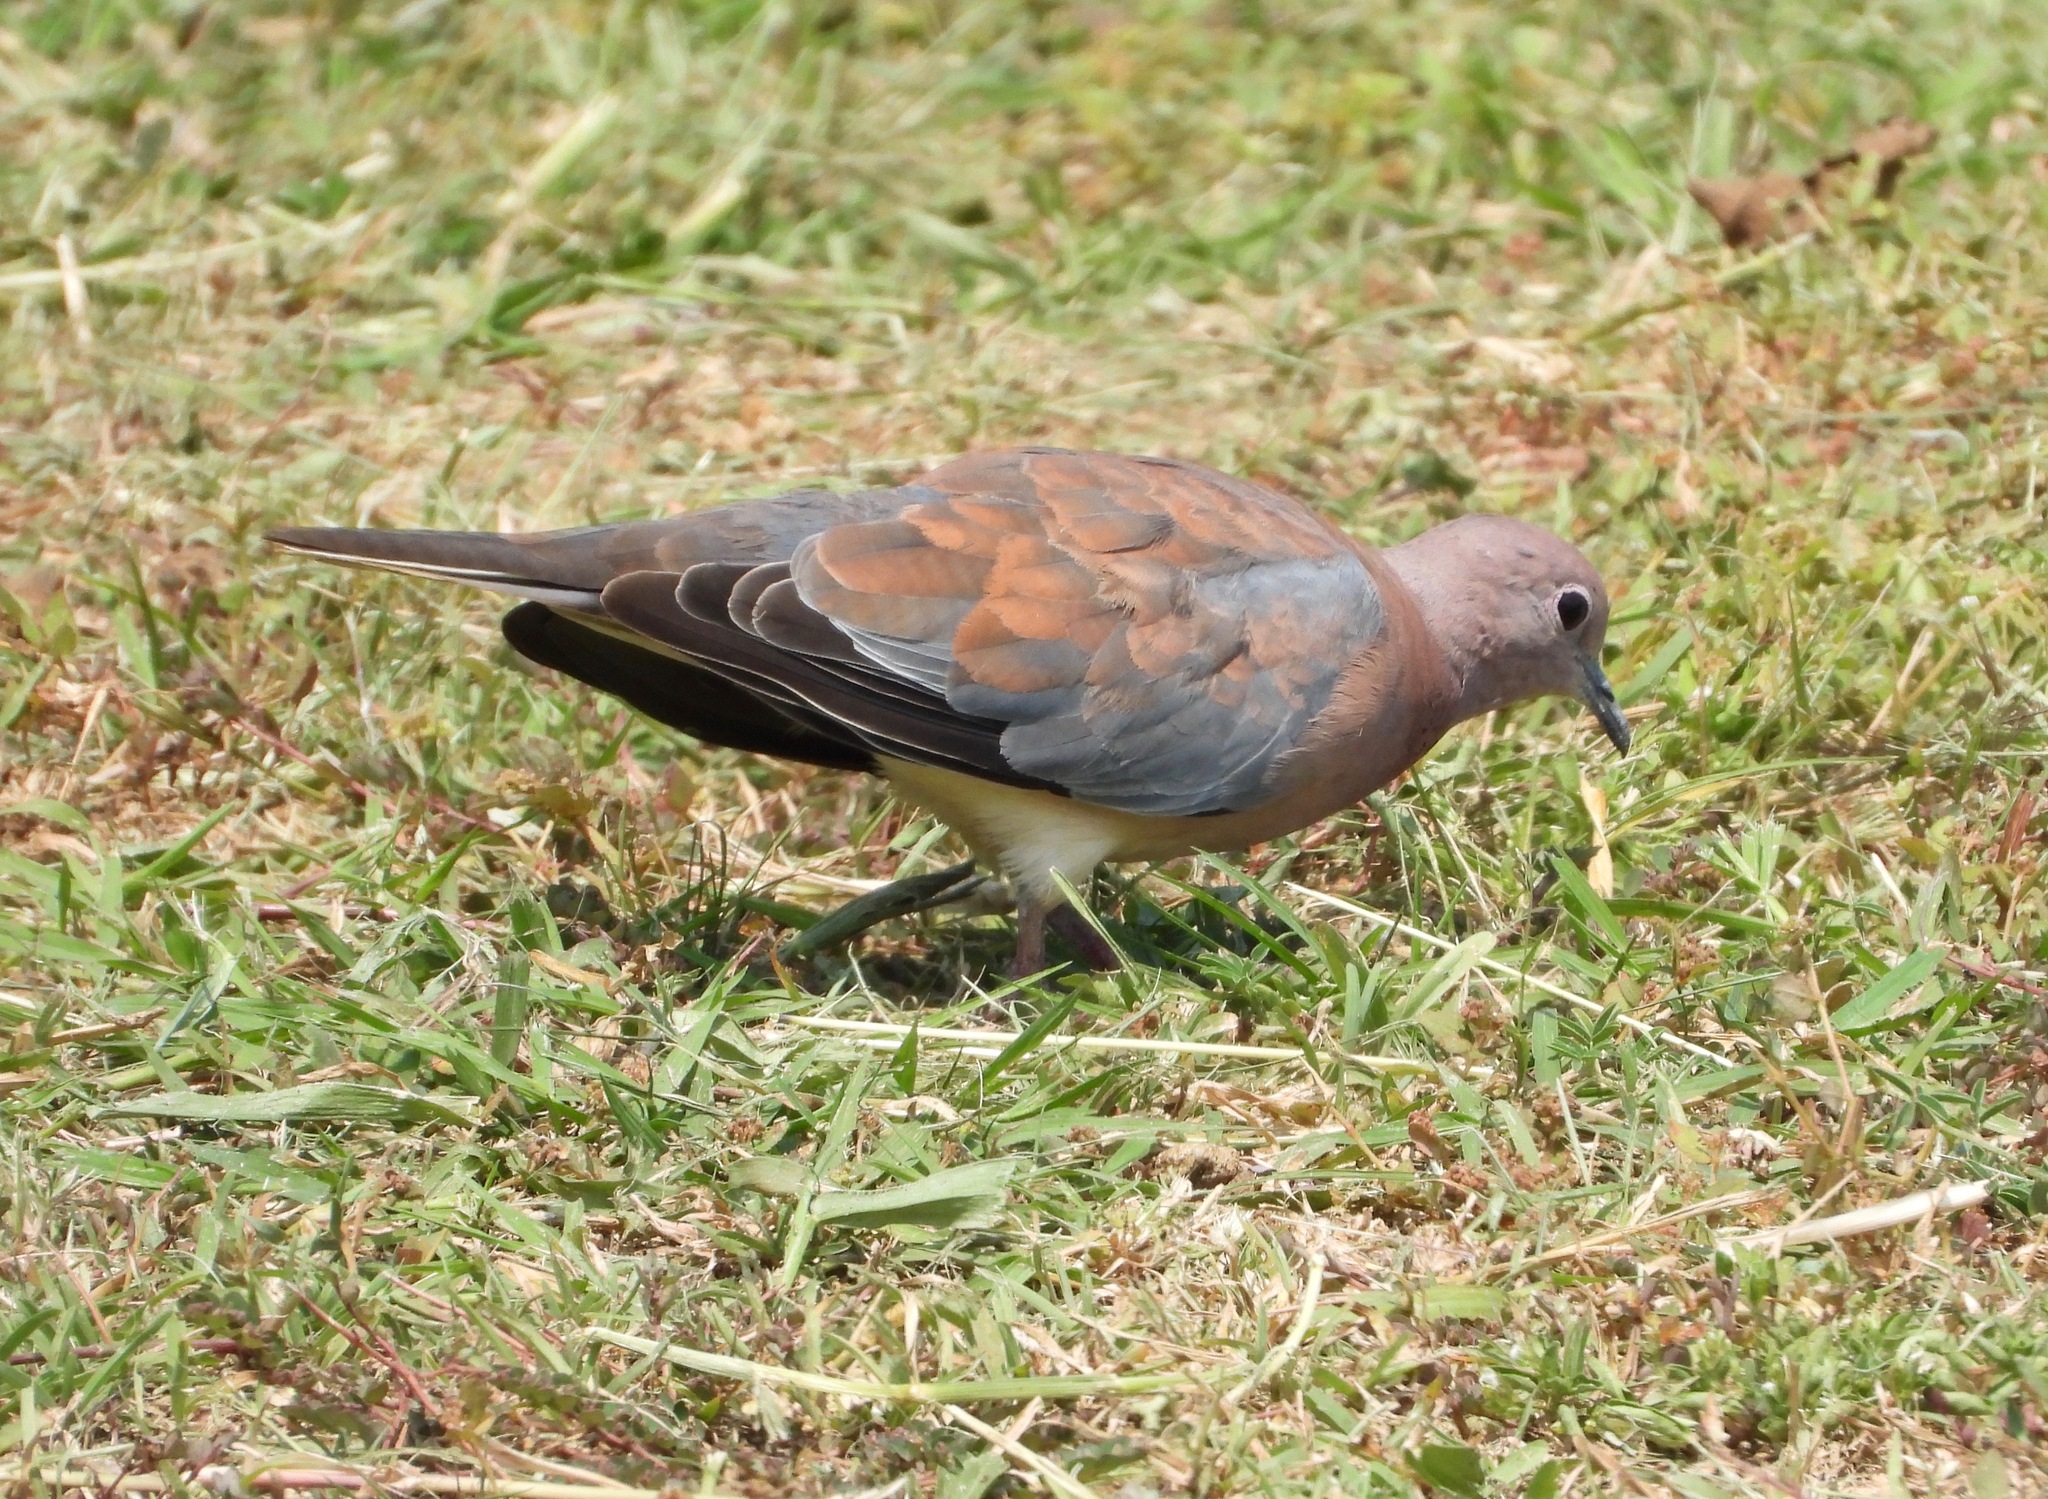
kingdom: Animalia
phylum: Chordata
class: Aves
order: Columbiformes
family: Columbidae
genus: Spilopelia
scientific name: Spilopelia senegalensis
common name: Laughing dove
